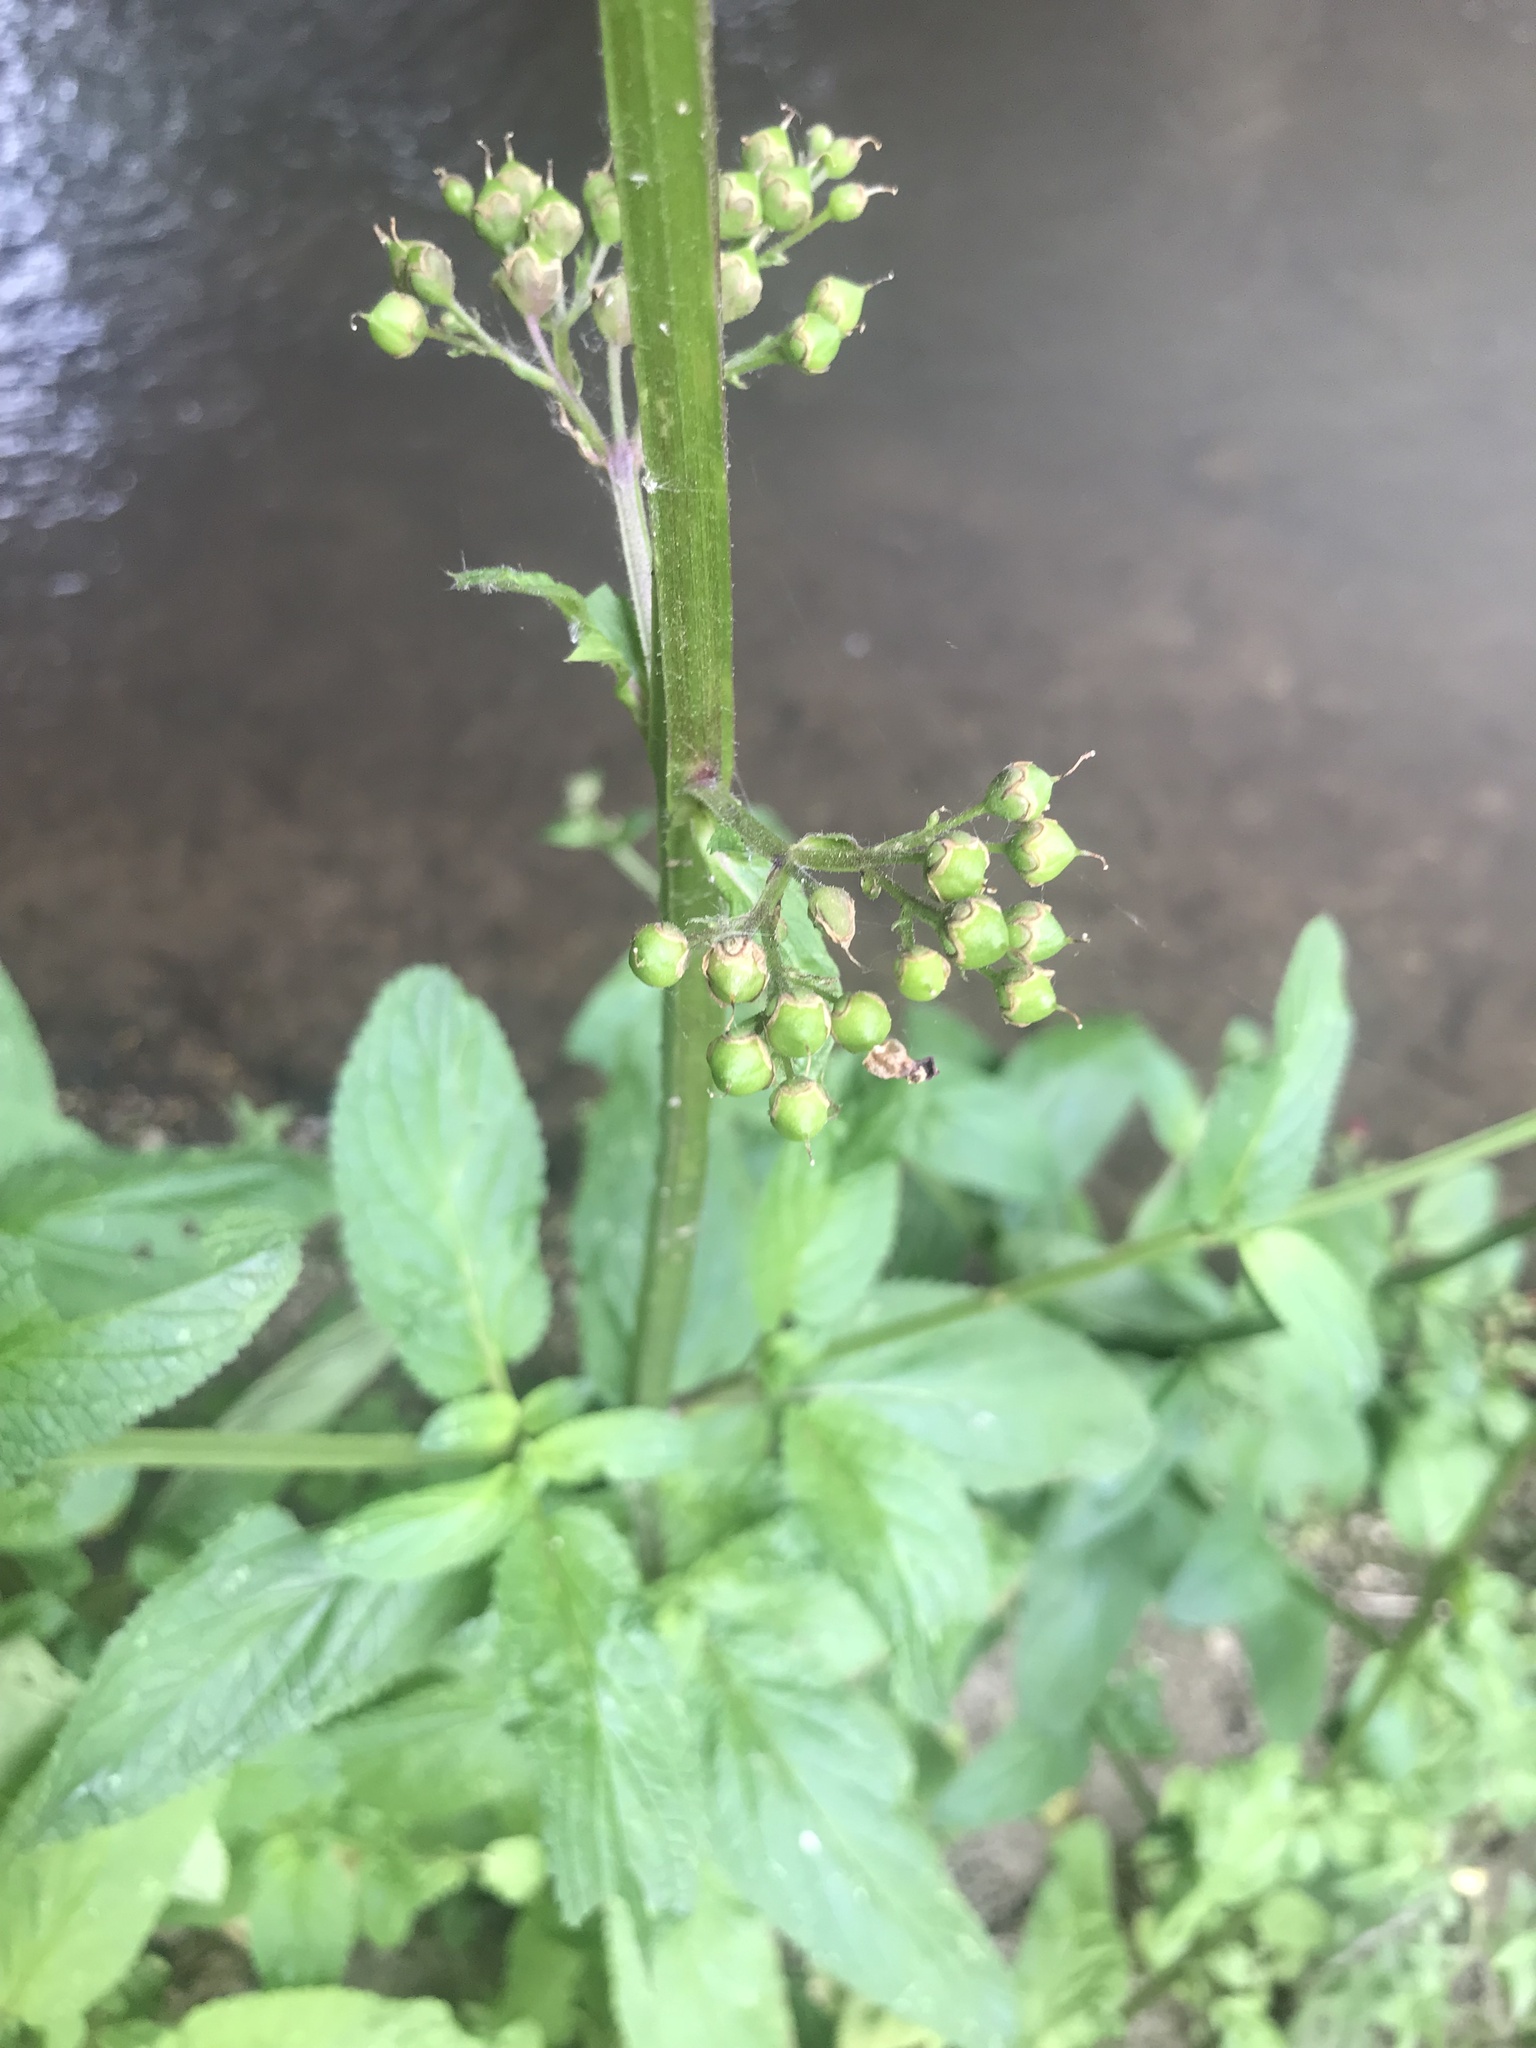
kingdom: Plantae
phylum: Tracheophyta
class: Magnoliopsida
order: Lamiales
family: Scrophulariaceae
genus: Scrophularia
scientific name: Scrophularia auriculata
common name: Water betony
